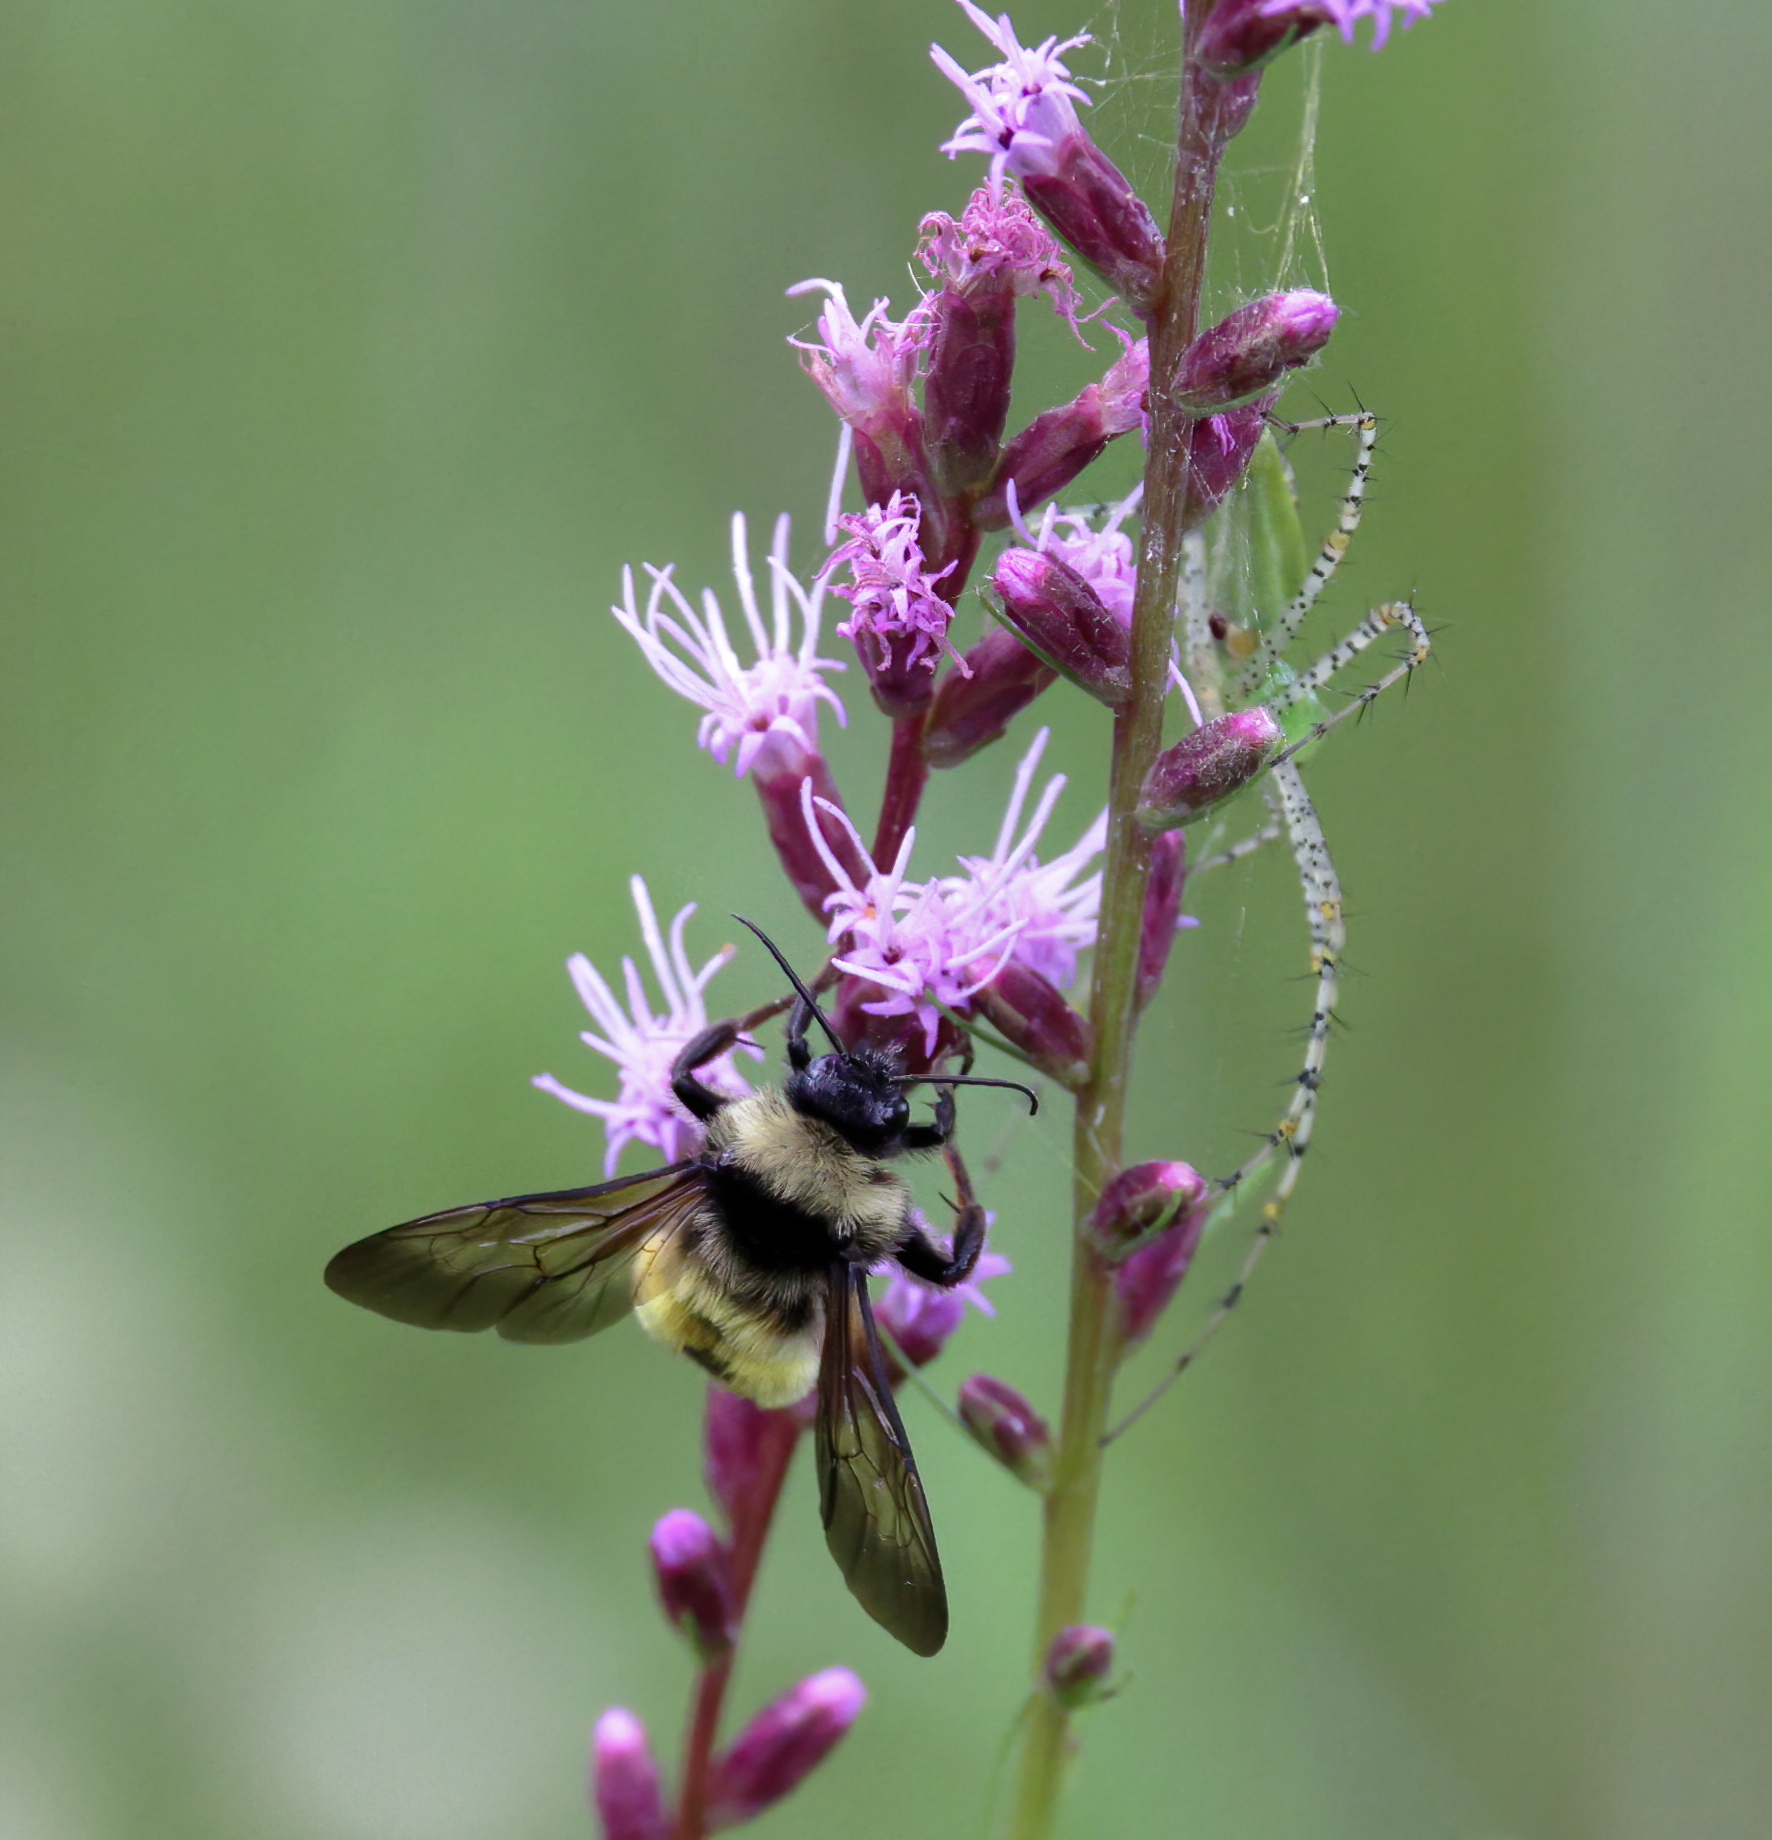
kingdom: Animalia
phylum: Arthropoda
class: Insecta
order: Hymenoptera
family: Apidae
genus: Bombus
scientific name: Bombus pensylvanicus
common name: Bumble bee
